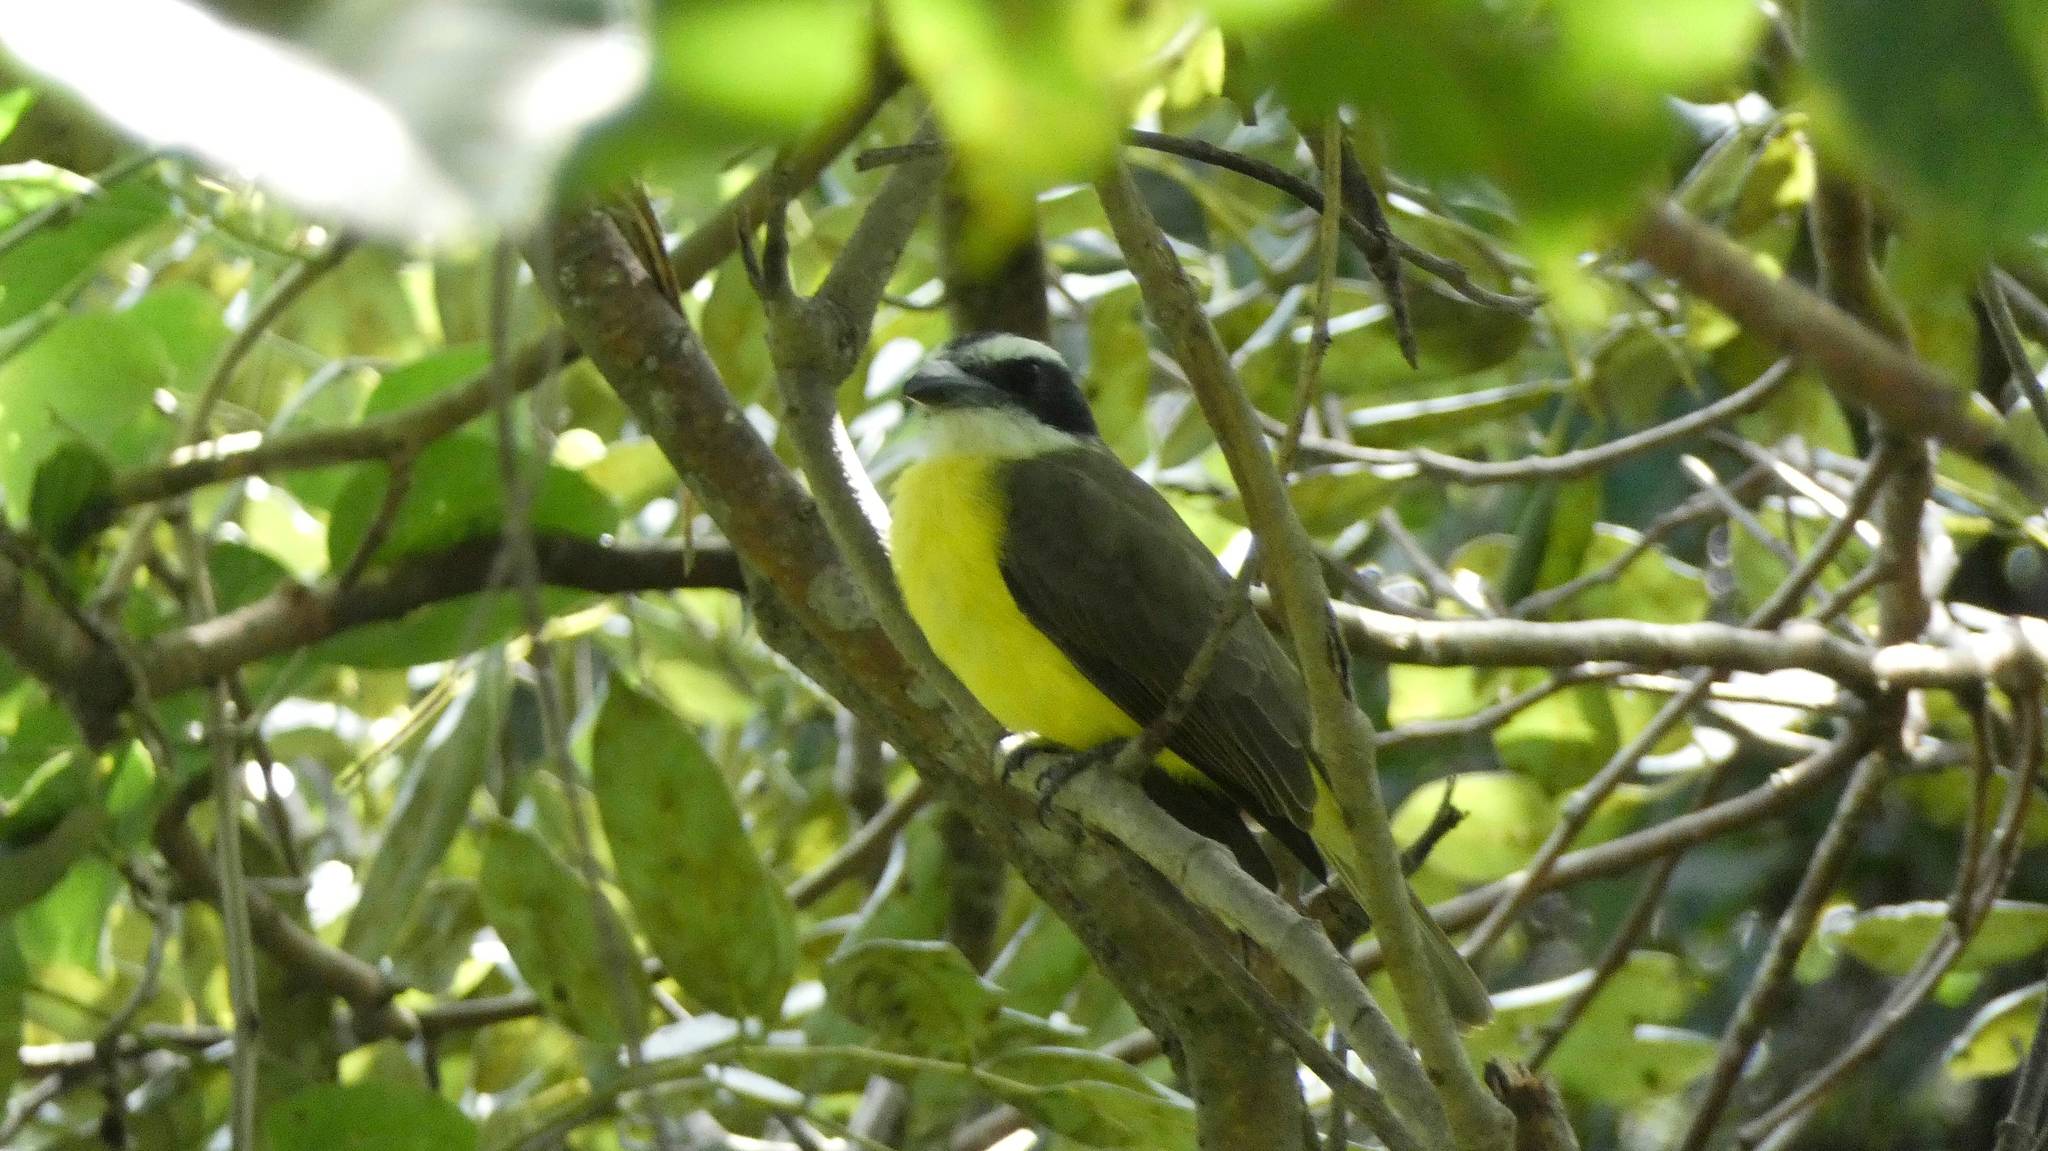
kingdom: Animalia
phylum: Chordata
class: Aves
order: Passeriformes
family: Tyrannidae
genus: Megarynchus
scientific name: Megarynchus pitangua
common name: Boat-billed flycatcher
